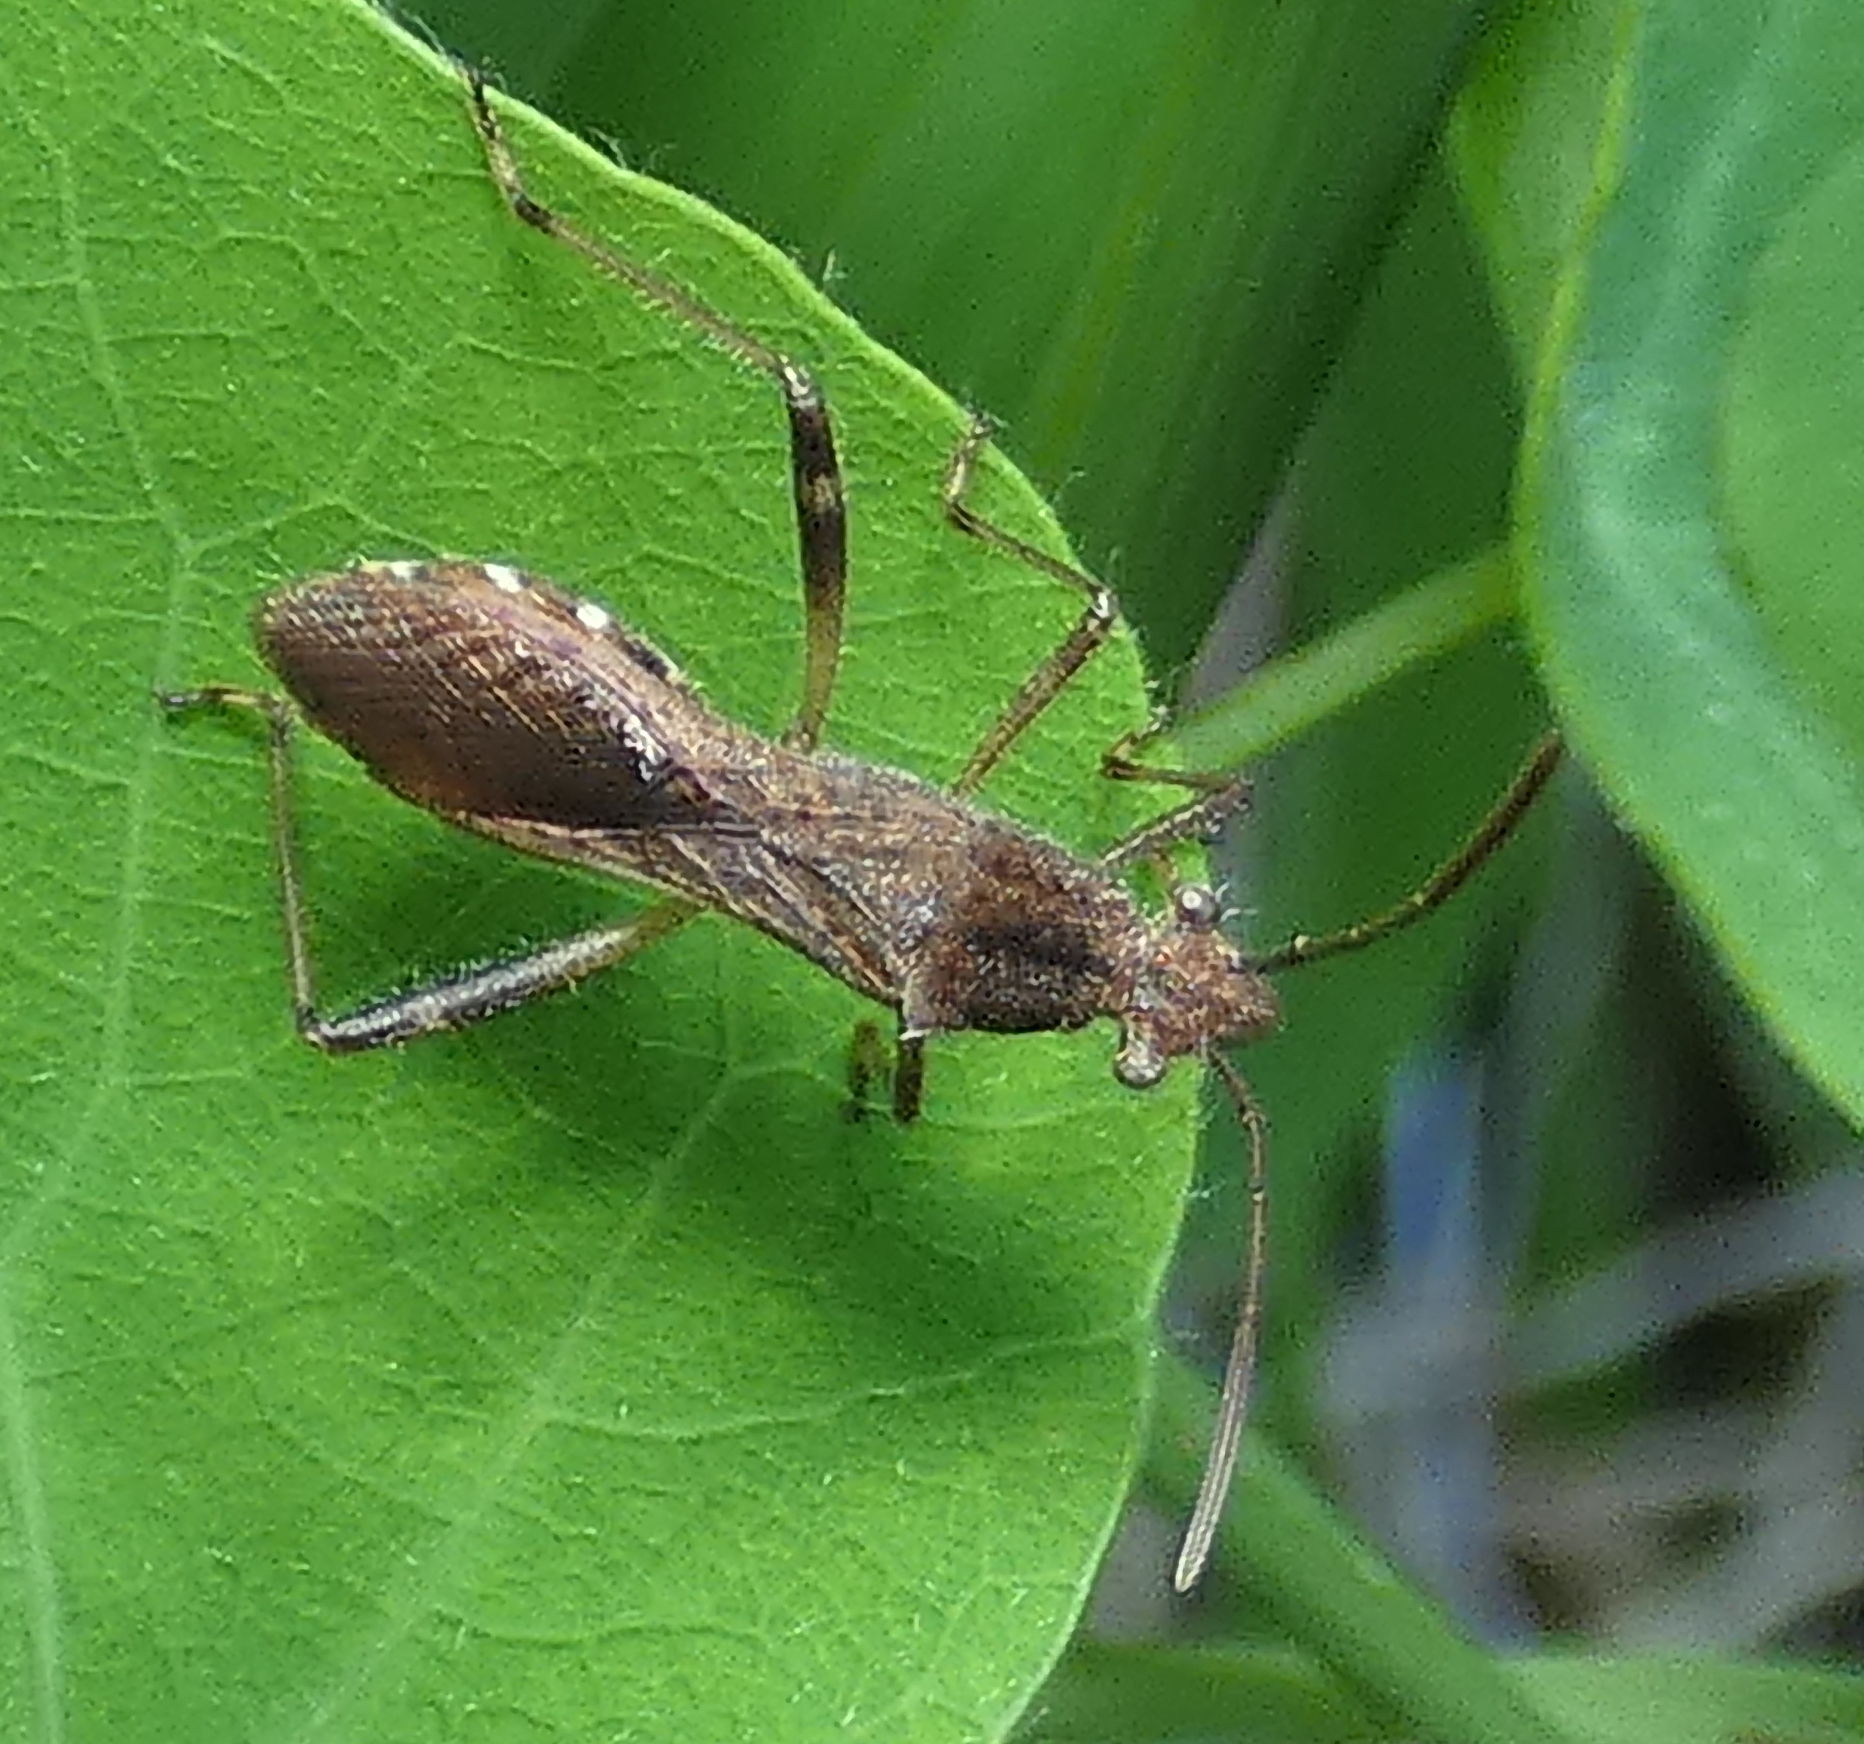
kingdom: Animalia
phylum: Arthropoda
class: Insecta
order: Hemiptera
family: Alydidae
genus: Neomegalotomus
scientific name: Neomegalotomus parvus
